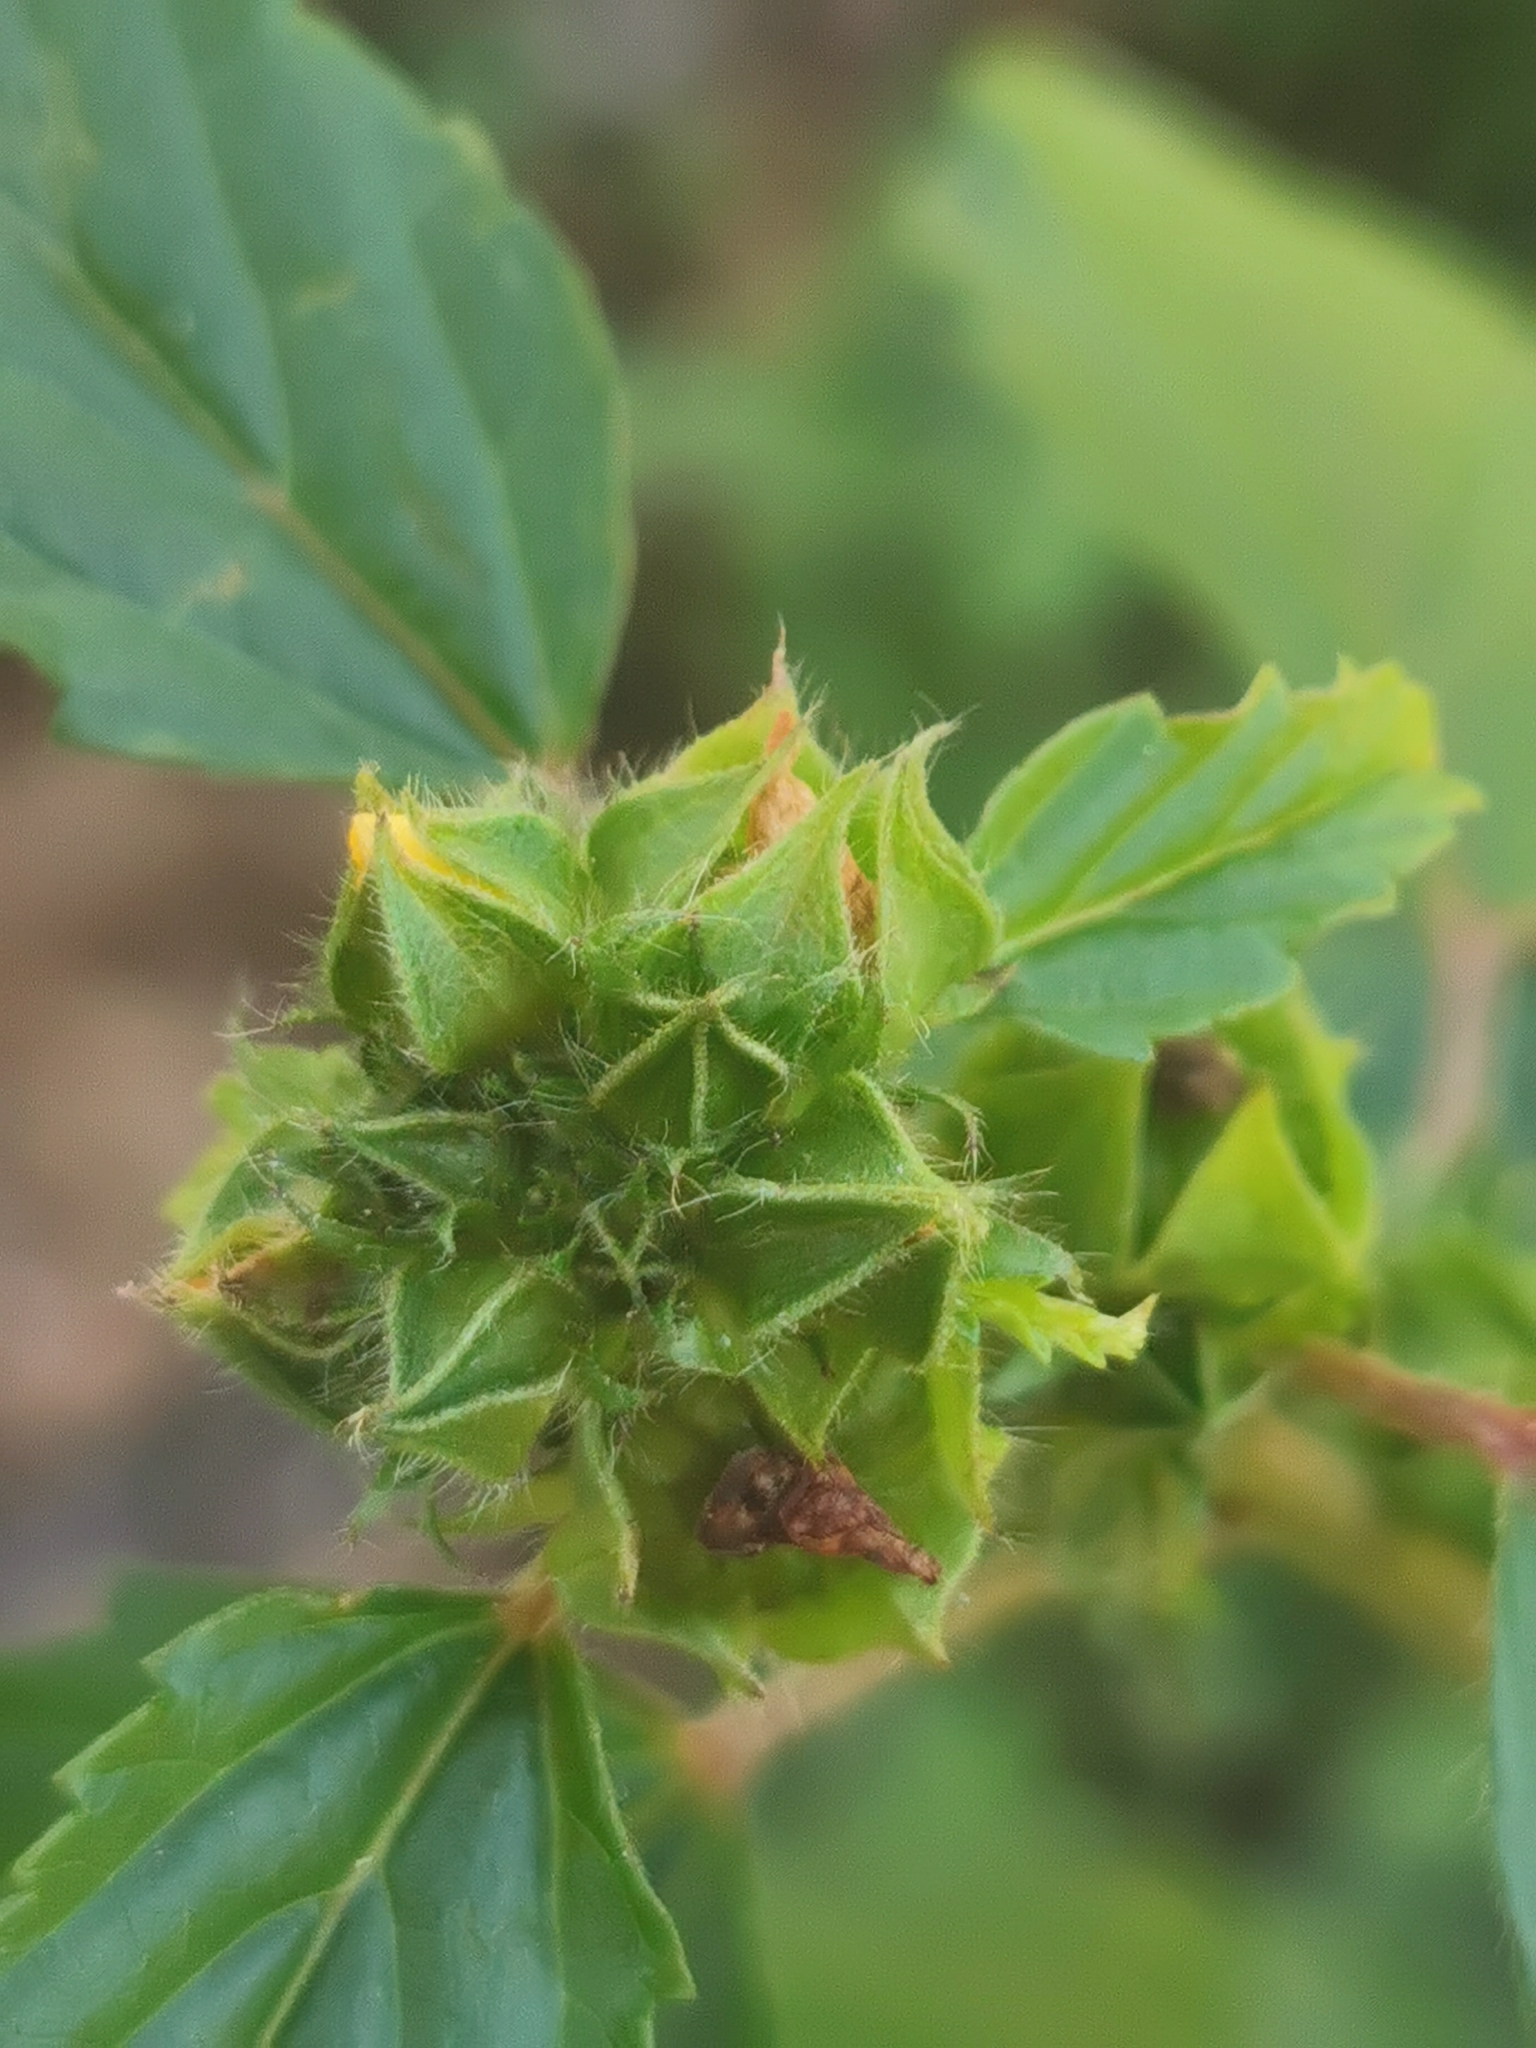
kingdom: Plantae
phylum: Tracheophyta
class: Magnoliopsida
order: Malvales
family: Malvaceae
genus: Malvastrum
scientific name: Malvastrum coromandelianum
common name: Threelobe false mallow
